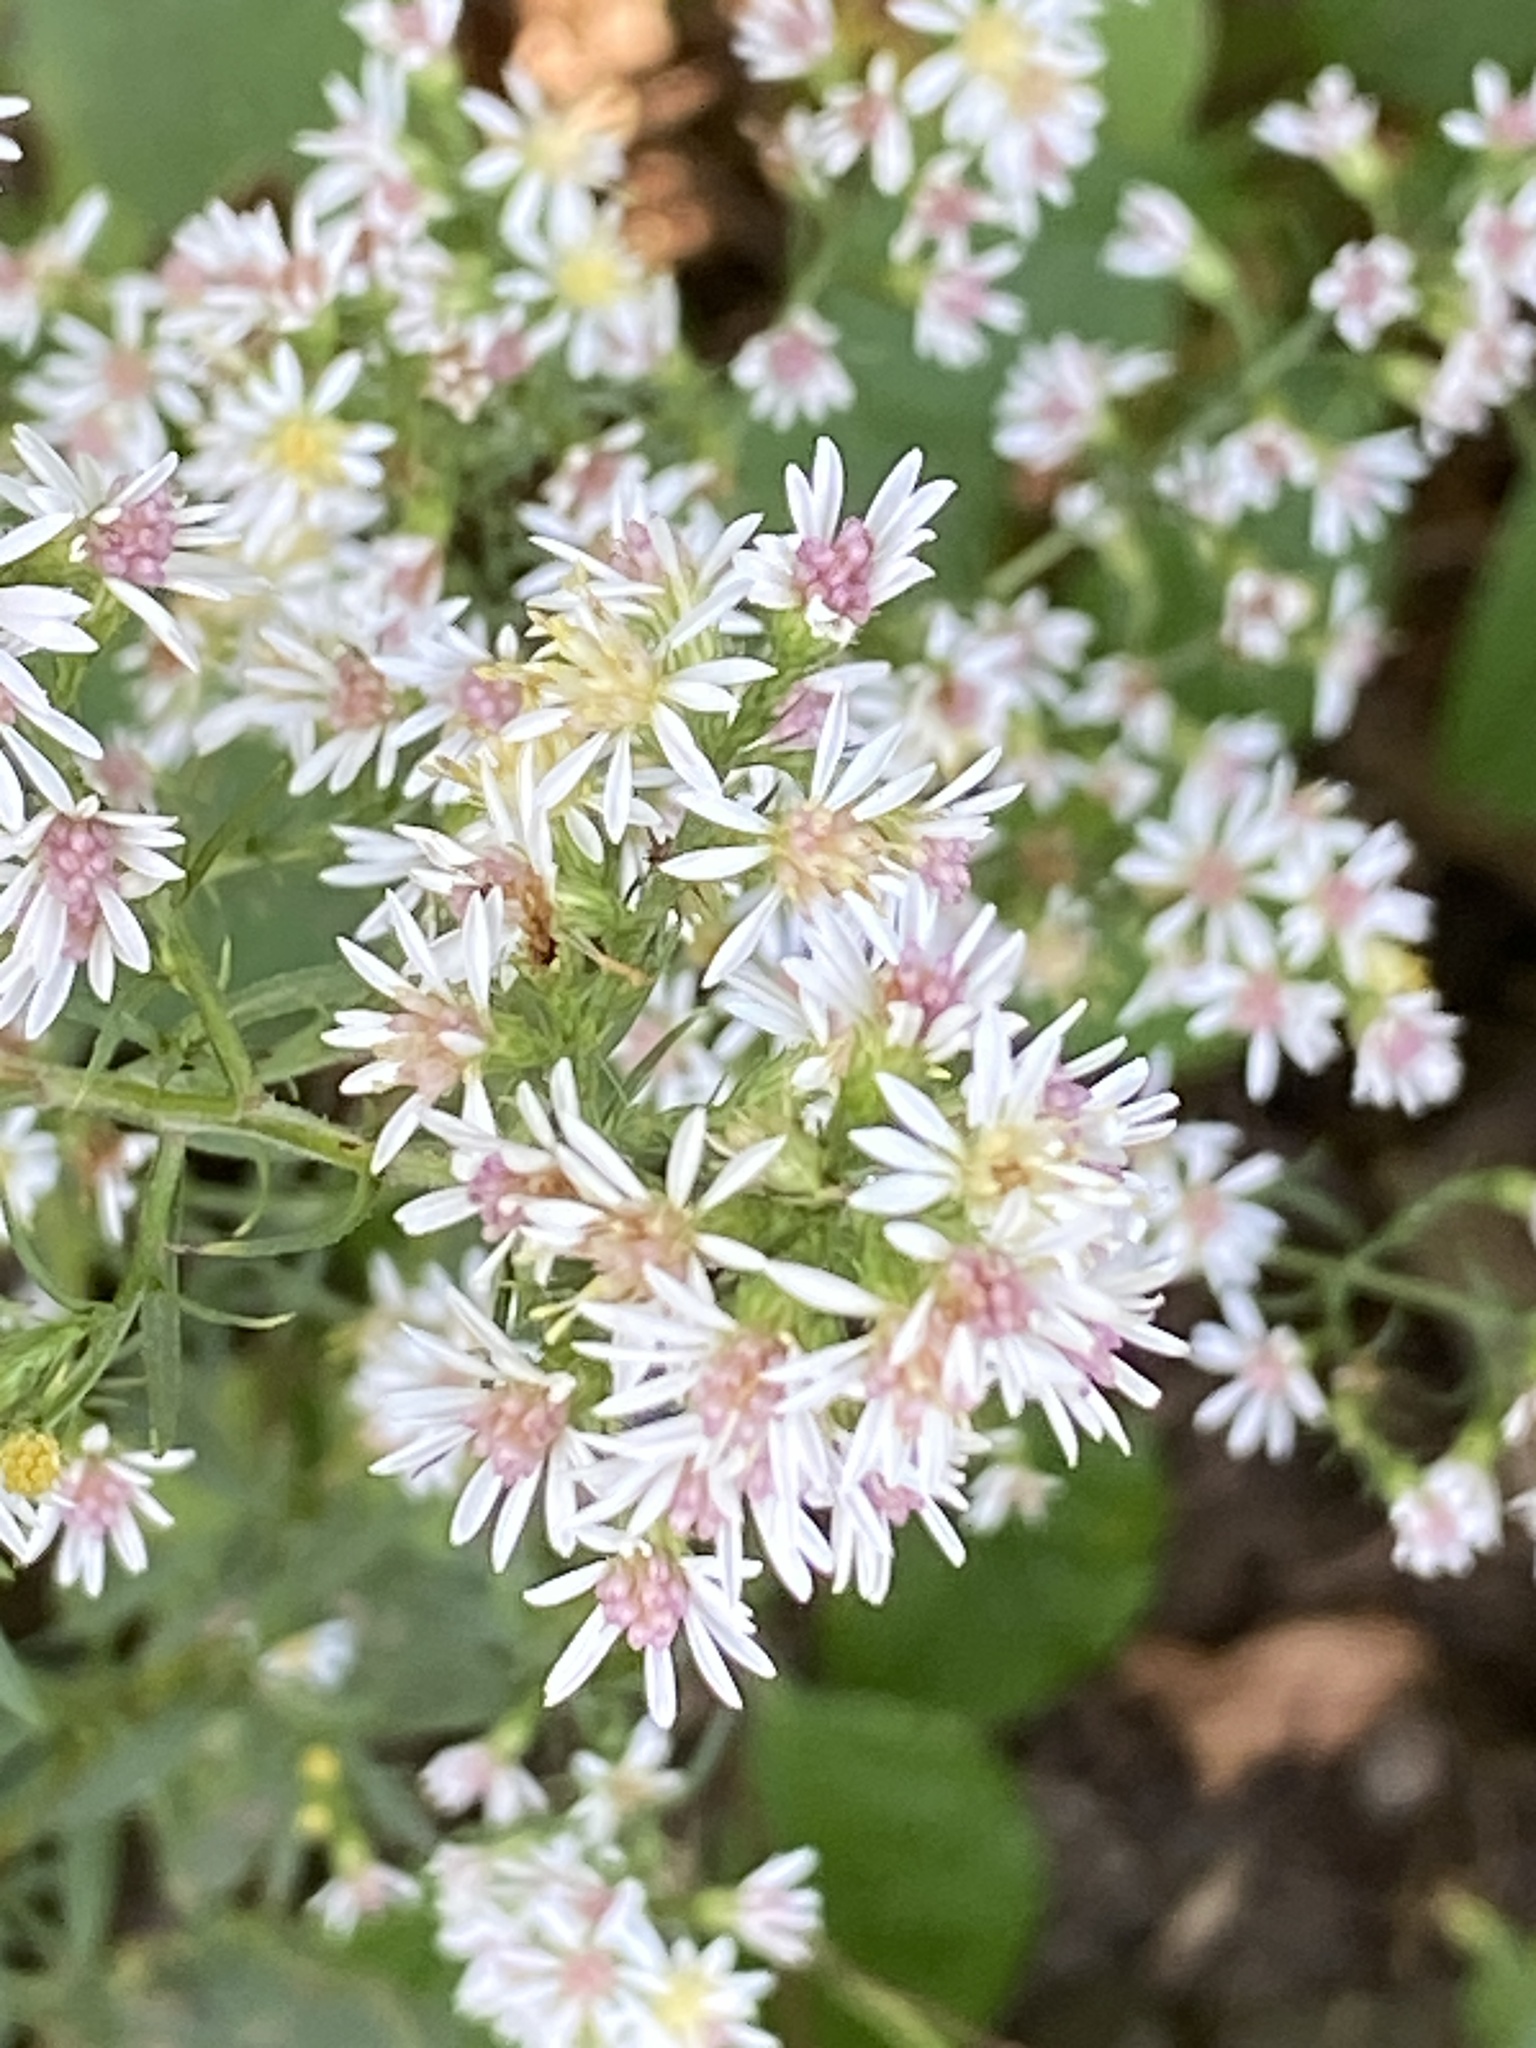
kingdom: Plantae
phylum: Tracheophyta
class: Magnoliopsida
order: Asterales
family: Asteraceae
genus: Symphyotrichum
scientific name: Symphyotrichum lateriflorum
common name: Calico aster
